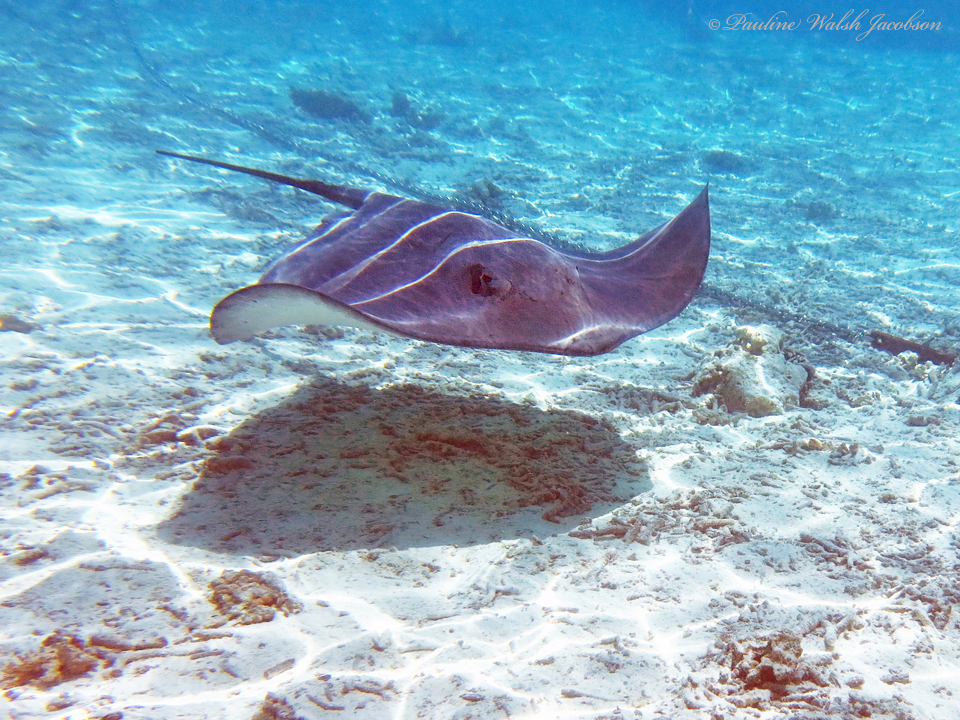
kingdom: Animalia
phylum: Chordata
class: Elasmobranchii
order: Myliobatiformes
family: Dasyatidae
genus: Pateobatis
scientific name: Pateobatis fai
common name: Pink whipray
